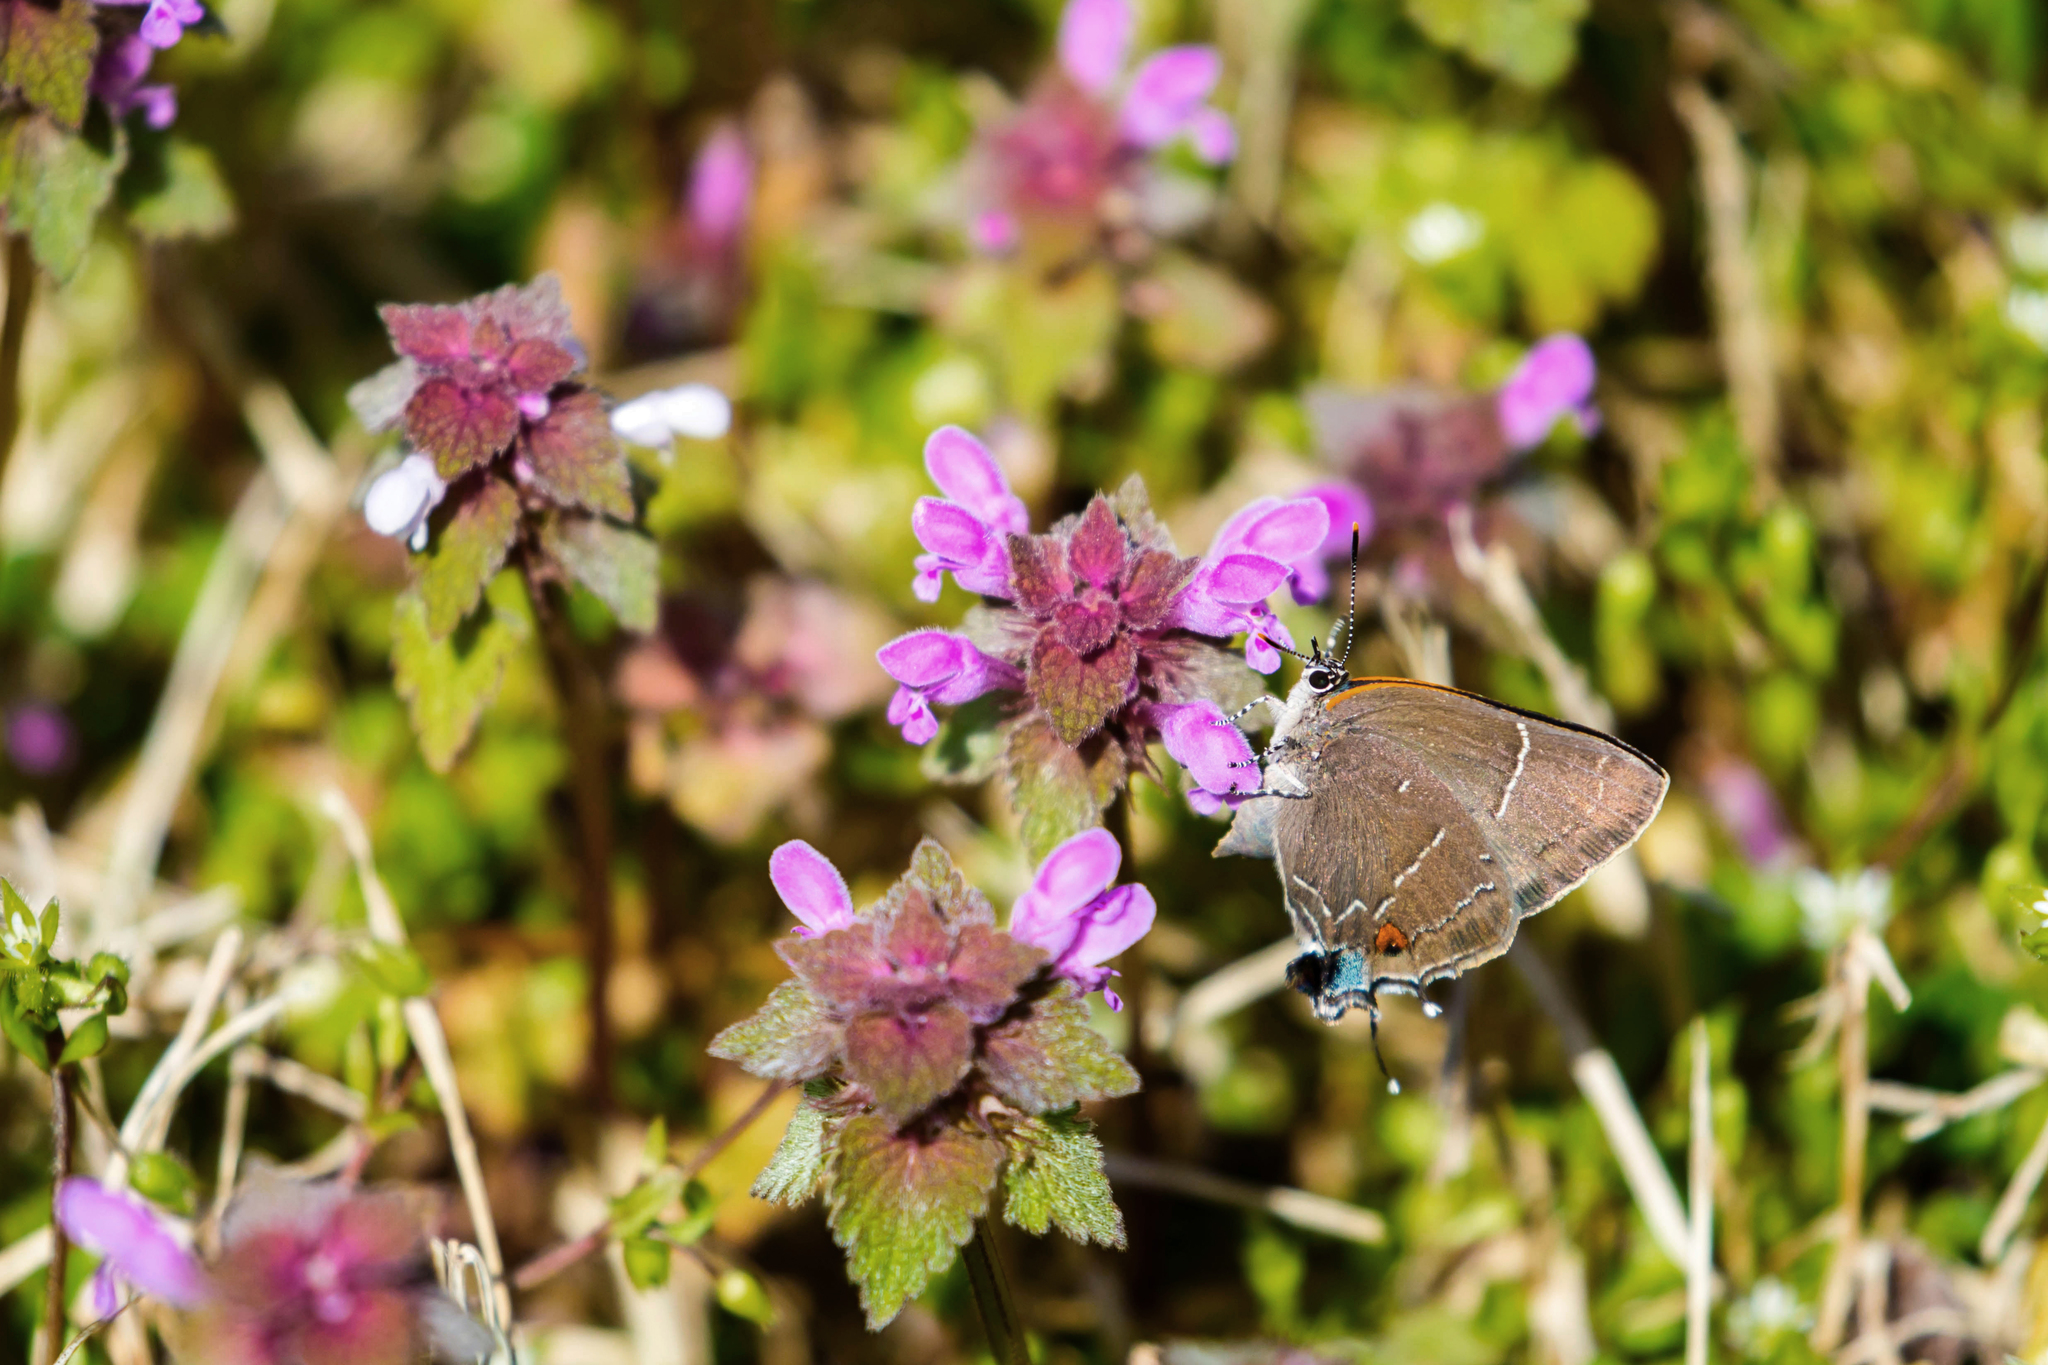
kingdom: Animalia
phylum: Arthropoda
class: Insecta
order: Lepidoptera
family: Lycaenidae
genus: Parrhasius
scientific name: Parrhasius m-album
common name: White m hairstreak
